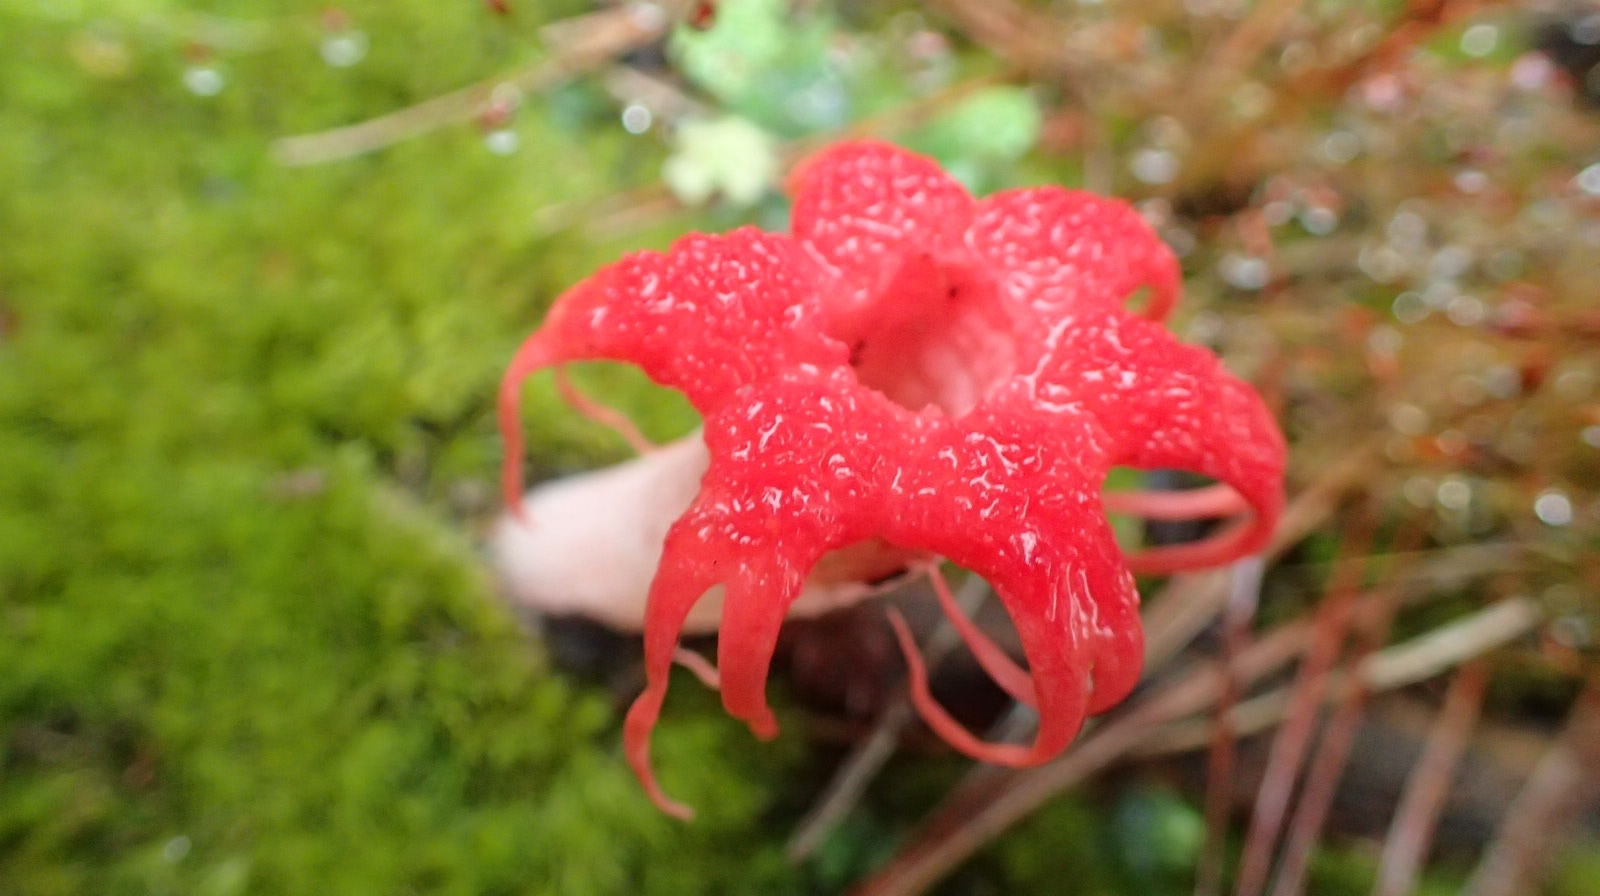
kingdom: Fungi
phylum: Basidiomycota
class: Agaricomycetes
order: Phallales
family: Phallaceae
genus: Aseroe
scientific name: Aseroe rubra
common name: Starfish fungus
